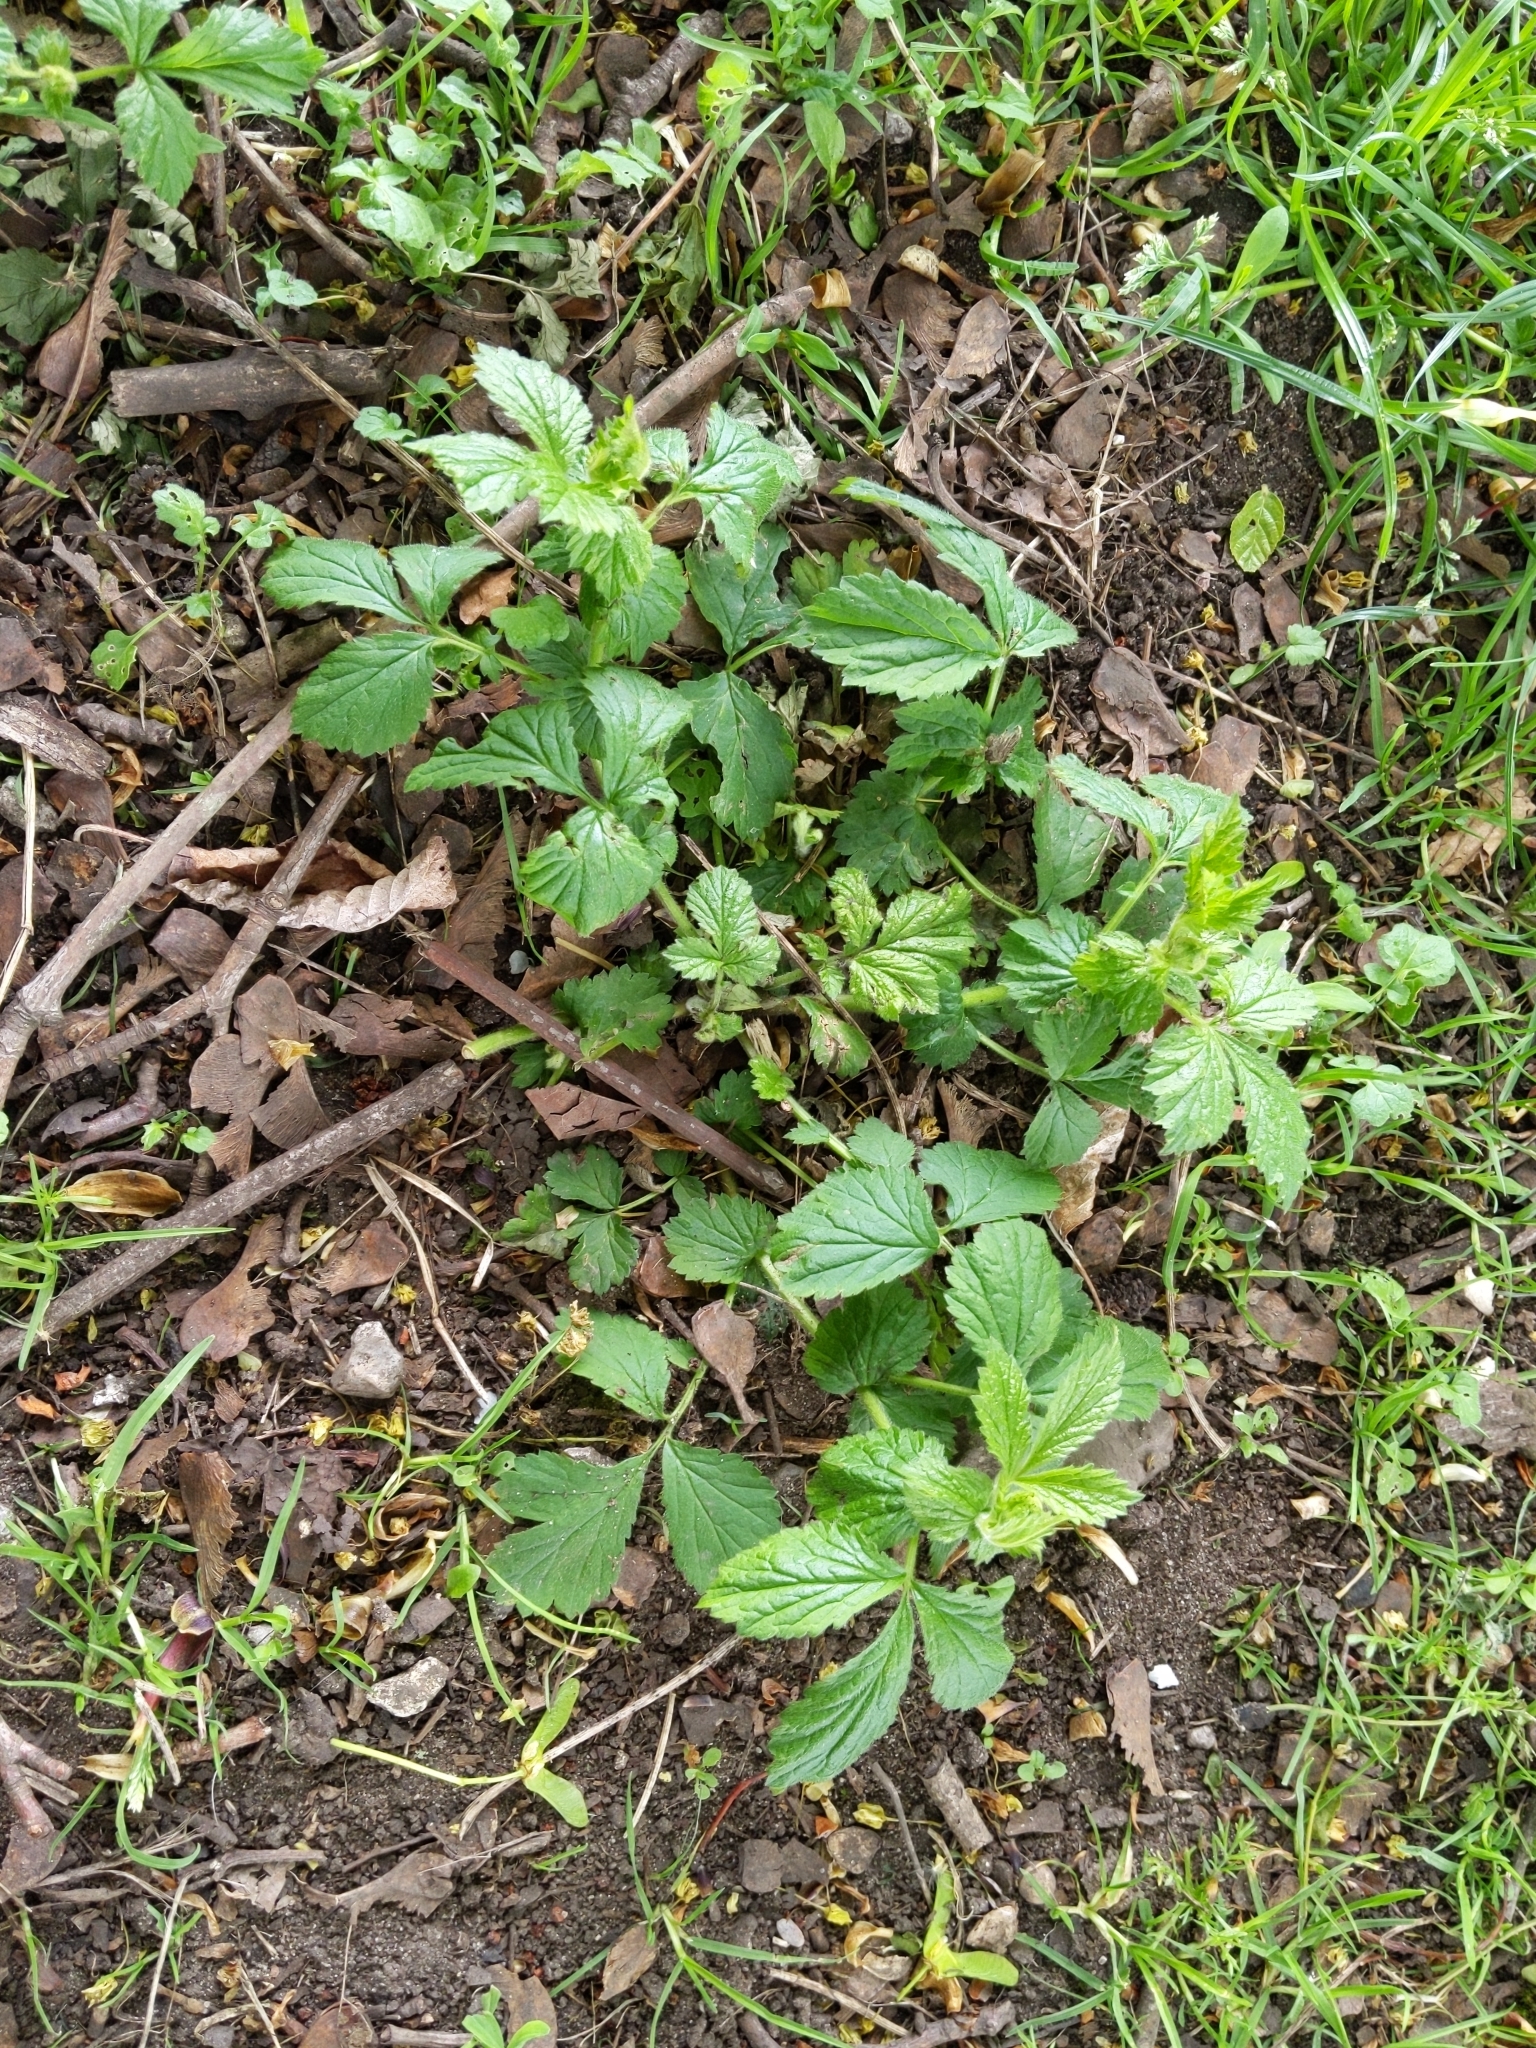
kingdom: Plantae
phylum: Tracheophyta
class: Magnoliopsida
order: Rosales
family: Rosaceae
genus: Geum
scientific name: Geum urbanum
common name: Wood avens
